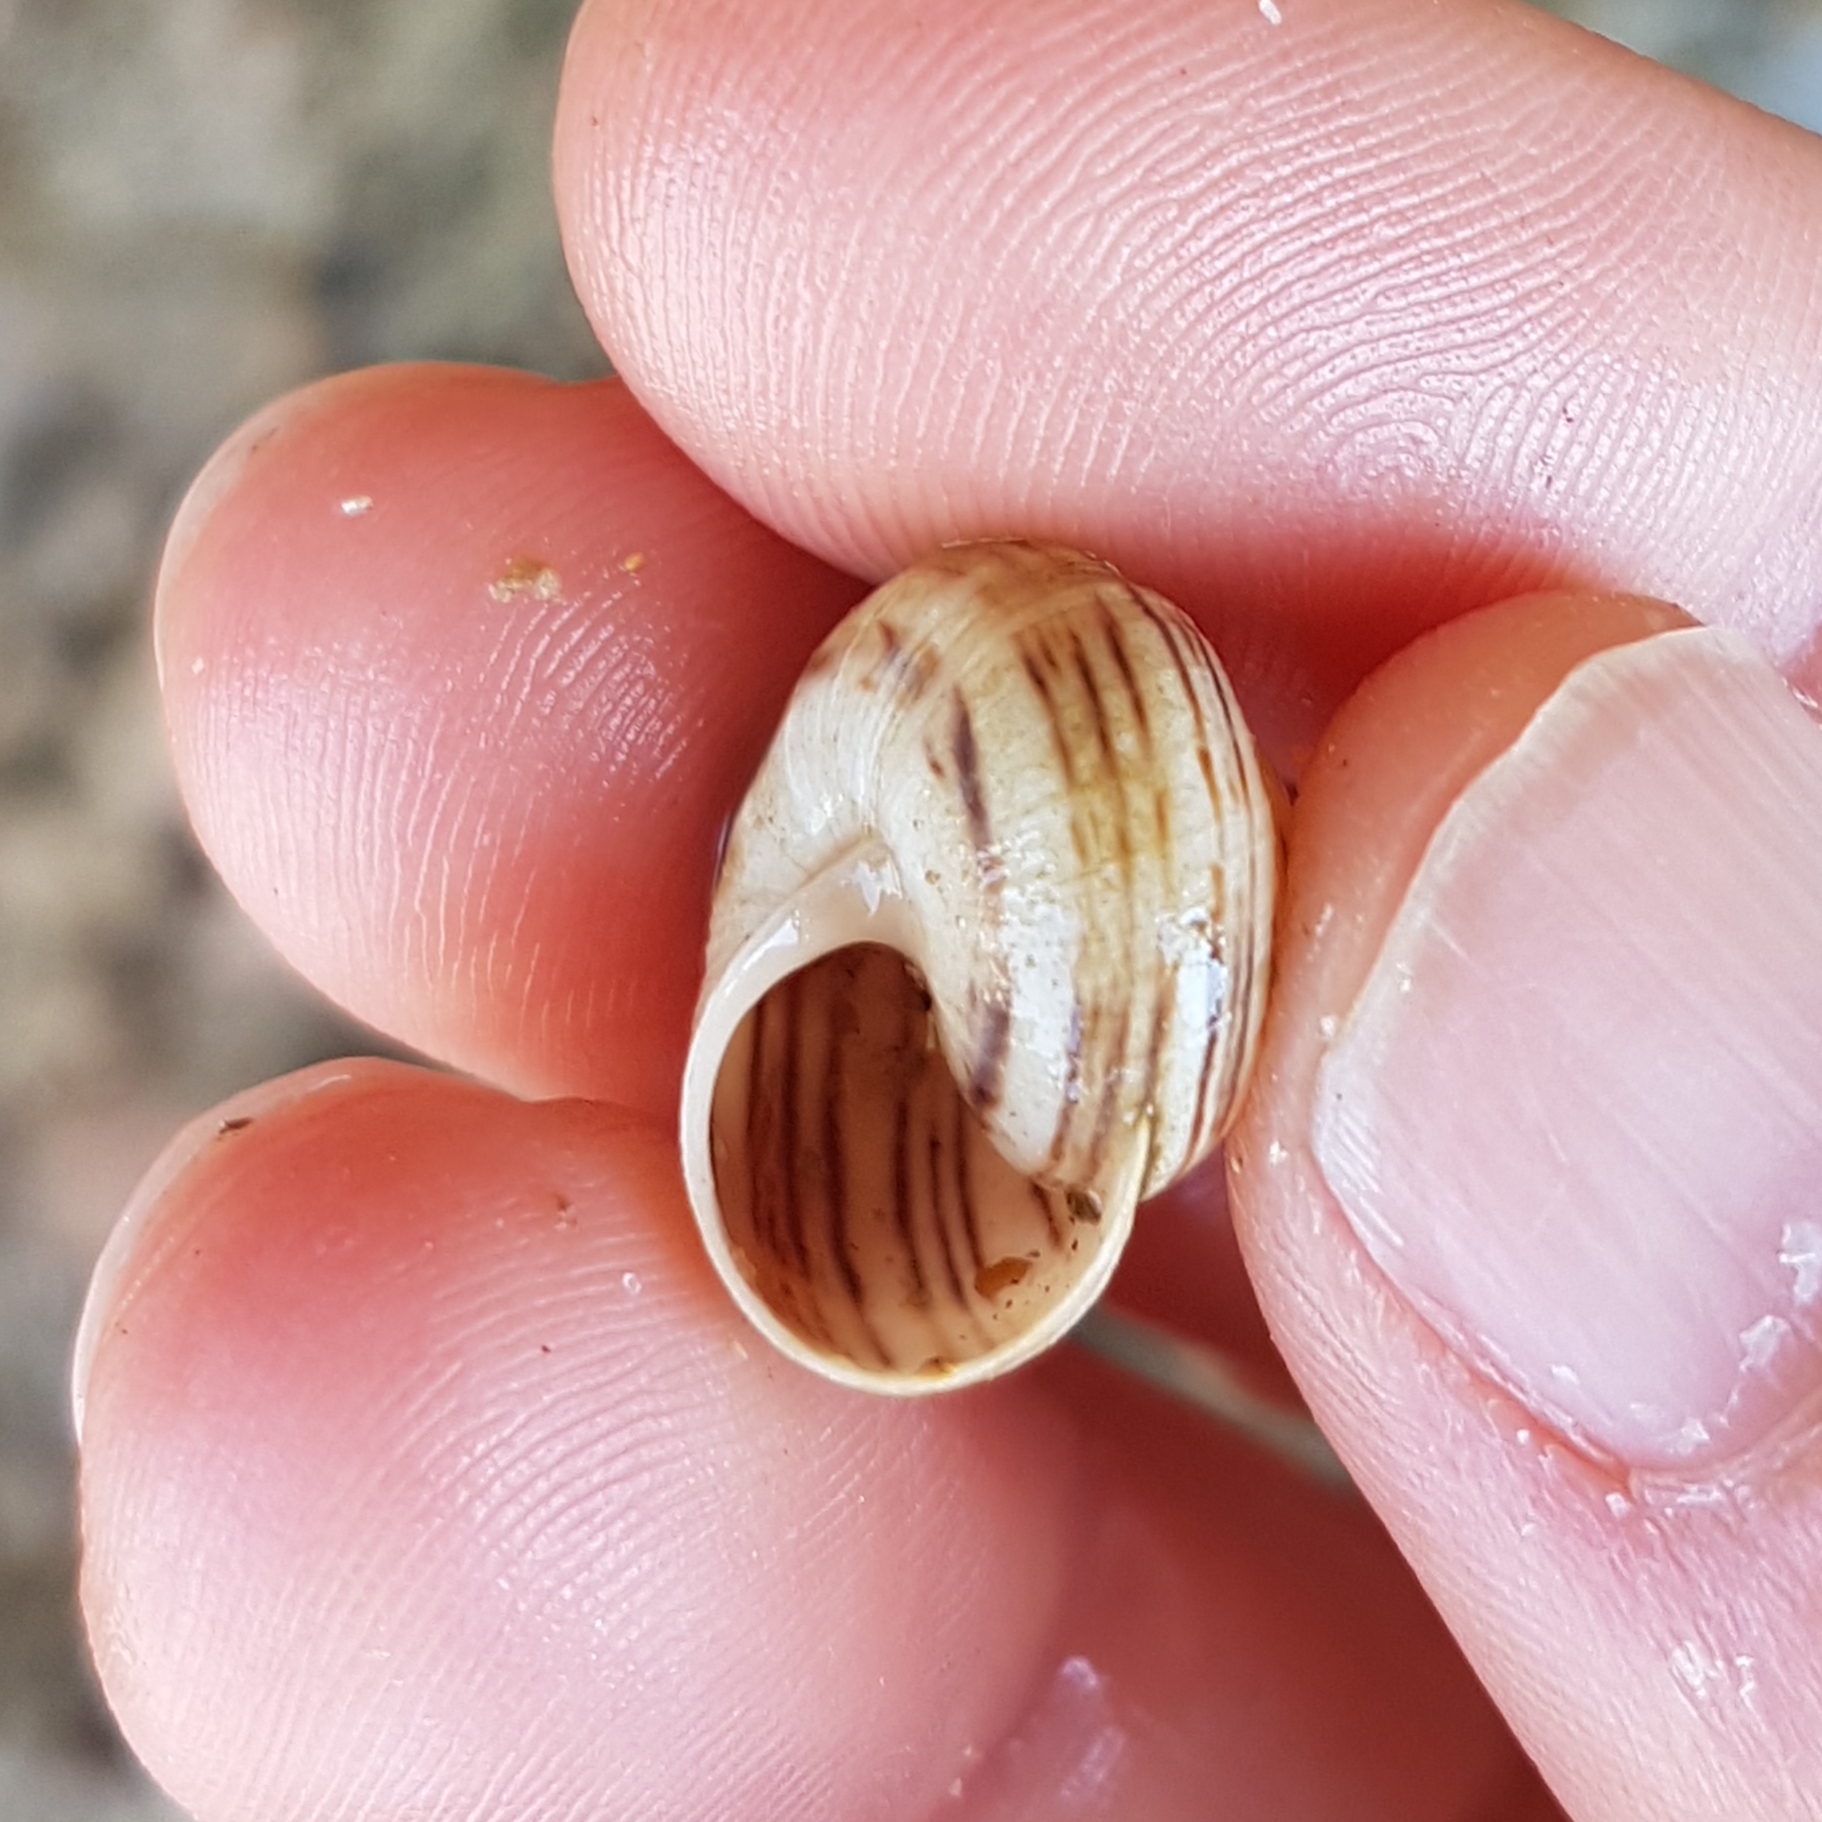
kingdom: Animalia
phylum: Mollusca
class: Gastropoda
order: Stylommatophora
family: Helicidae
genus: Theba
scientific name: Theba pisana
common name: White snail
